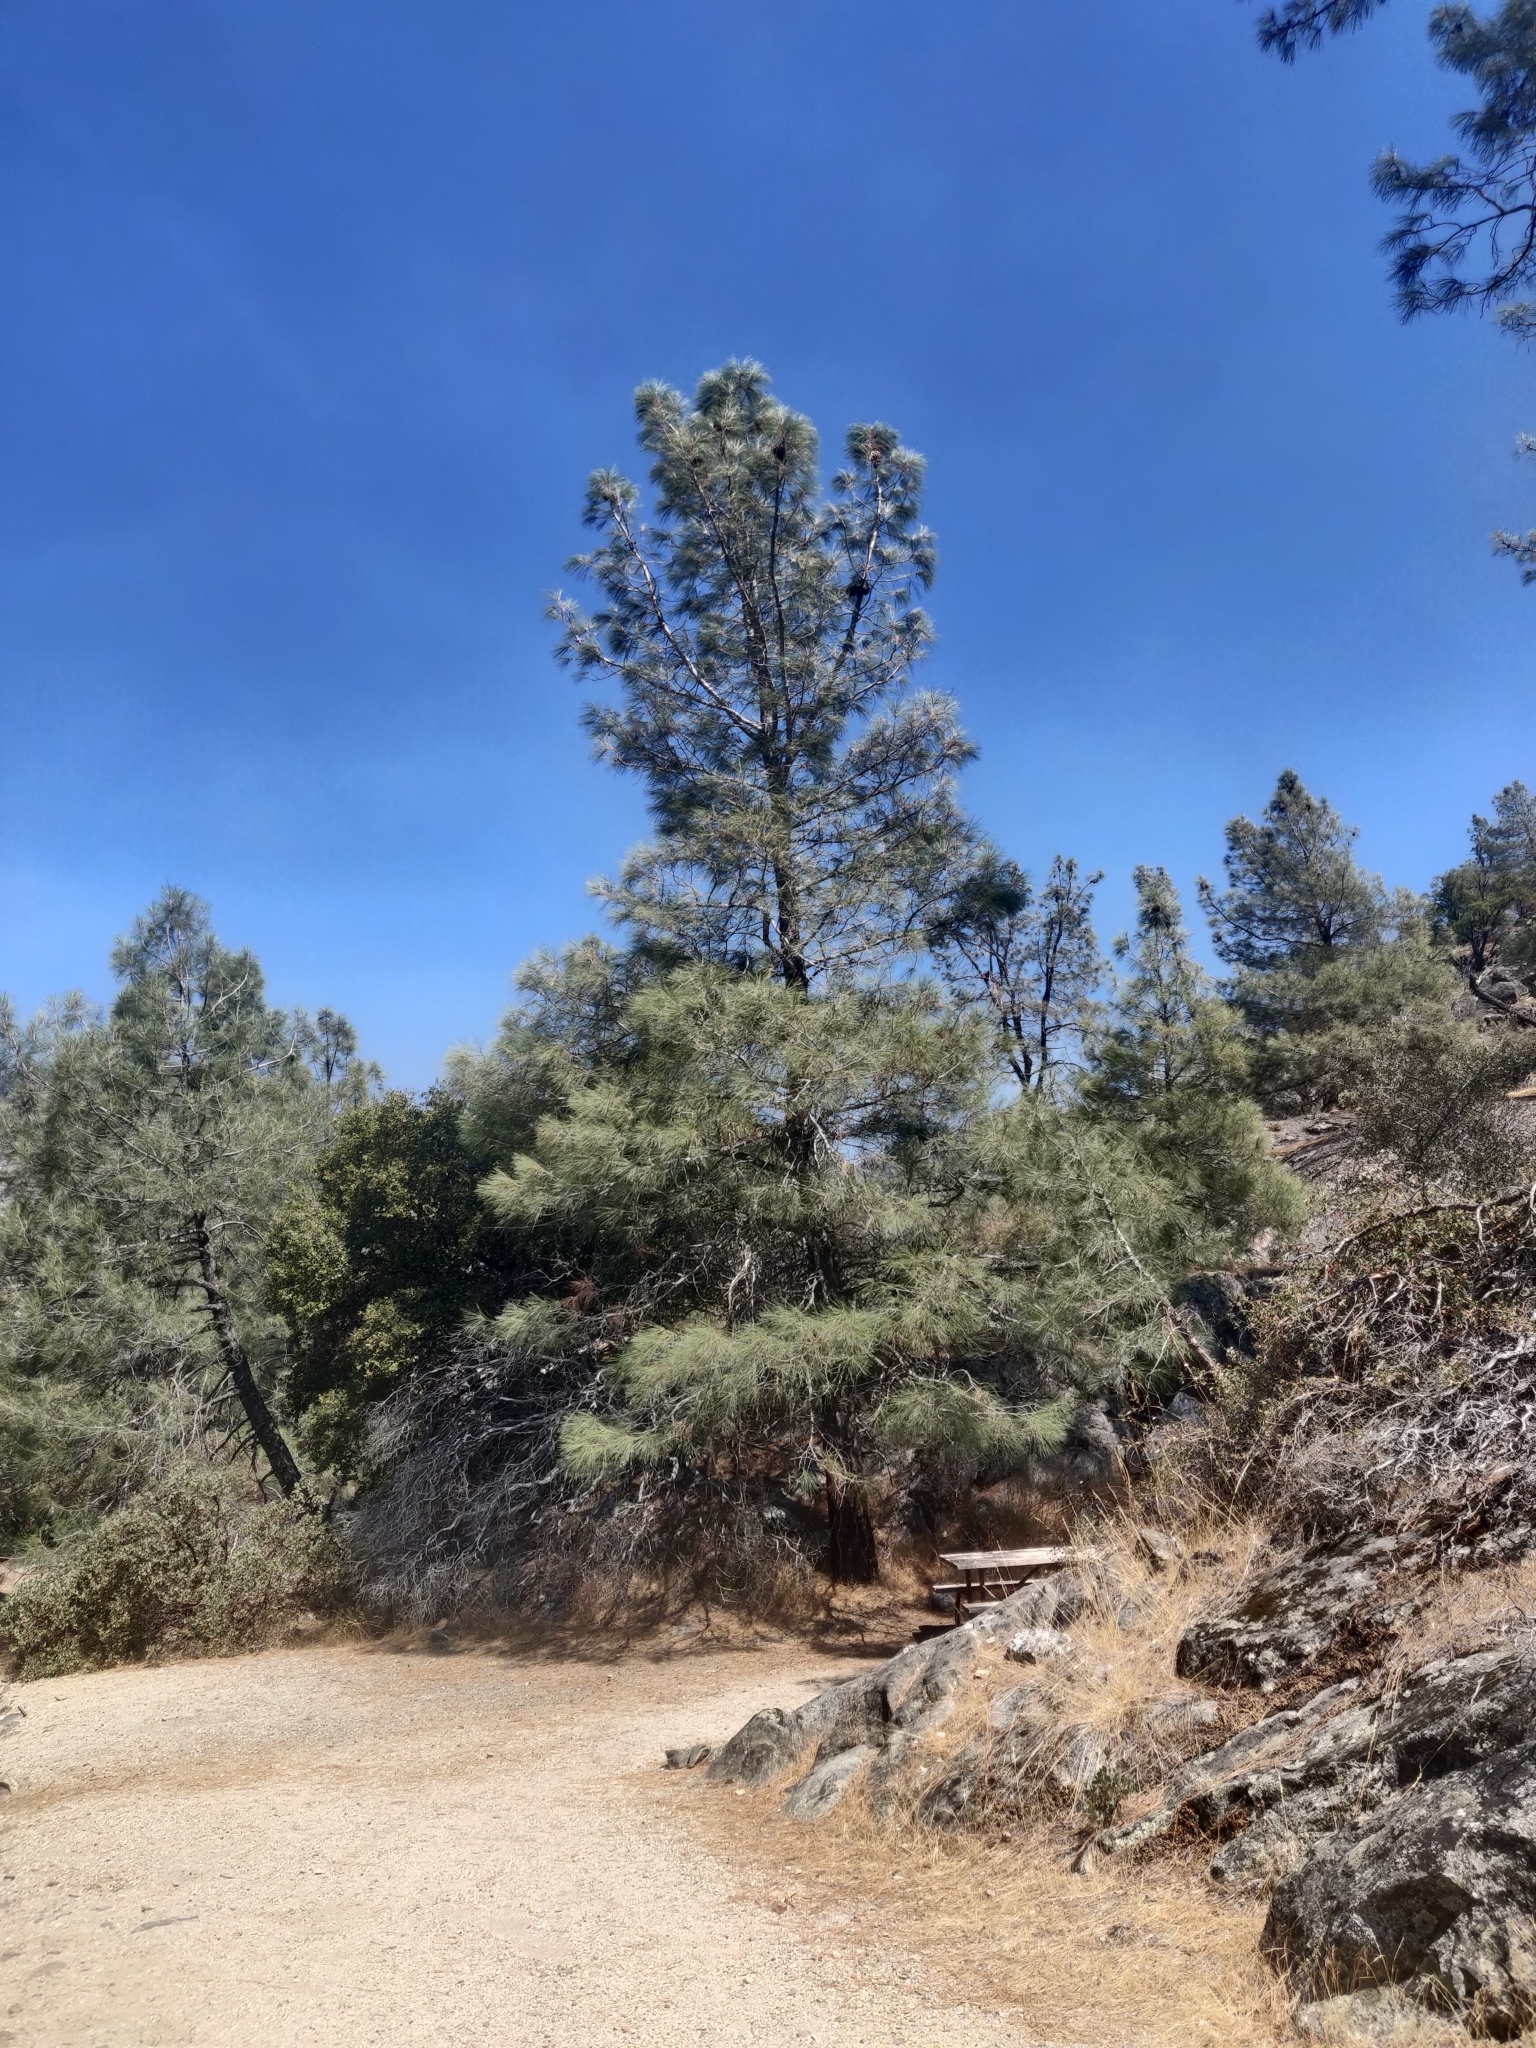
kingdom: Plantae
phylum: Tracheophyta
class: Pinopsida
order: Pinales
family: Pinaceae
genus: Pinus
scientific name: Pinus sabiniana
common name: Bull pine
